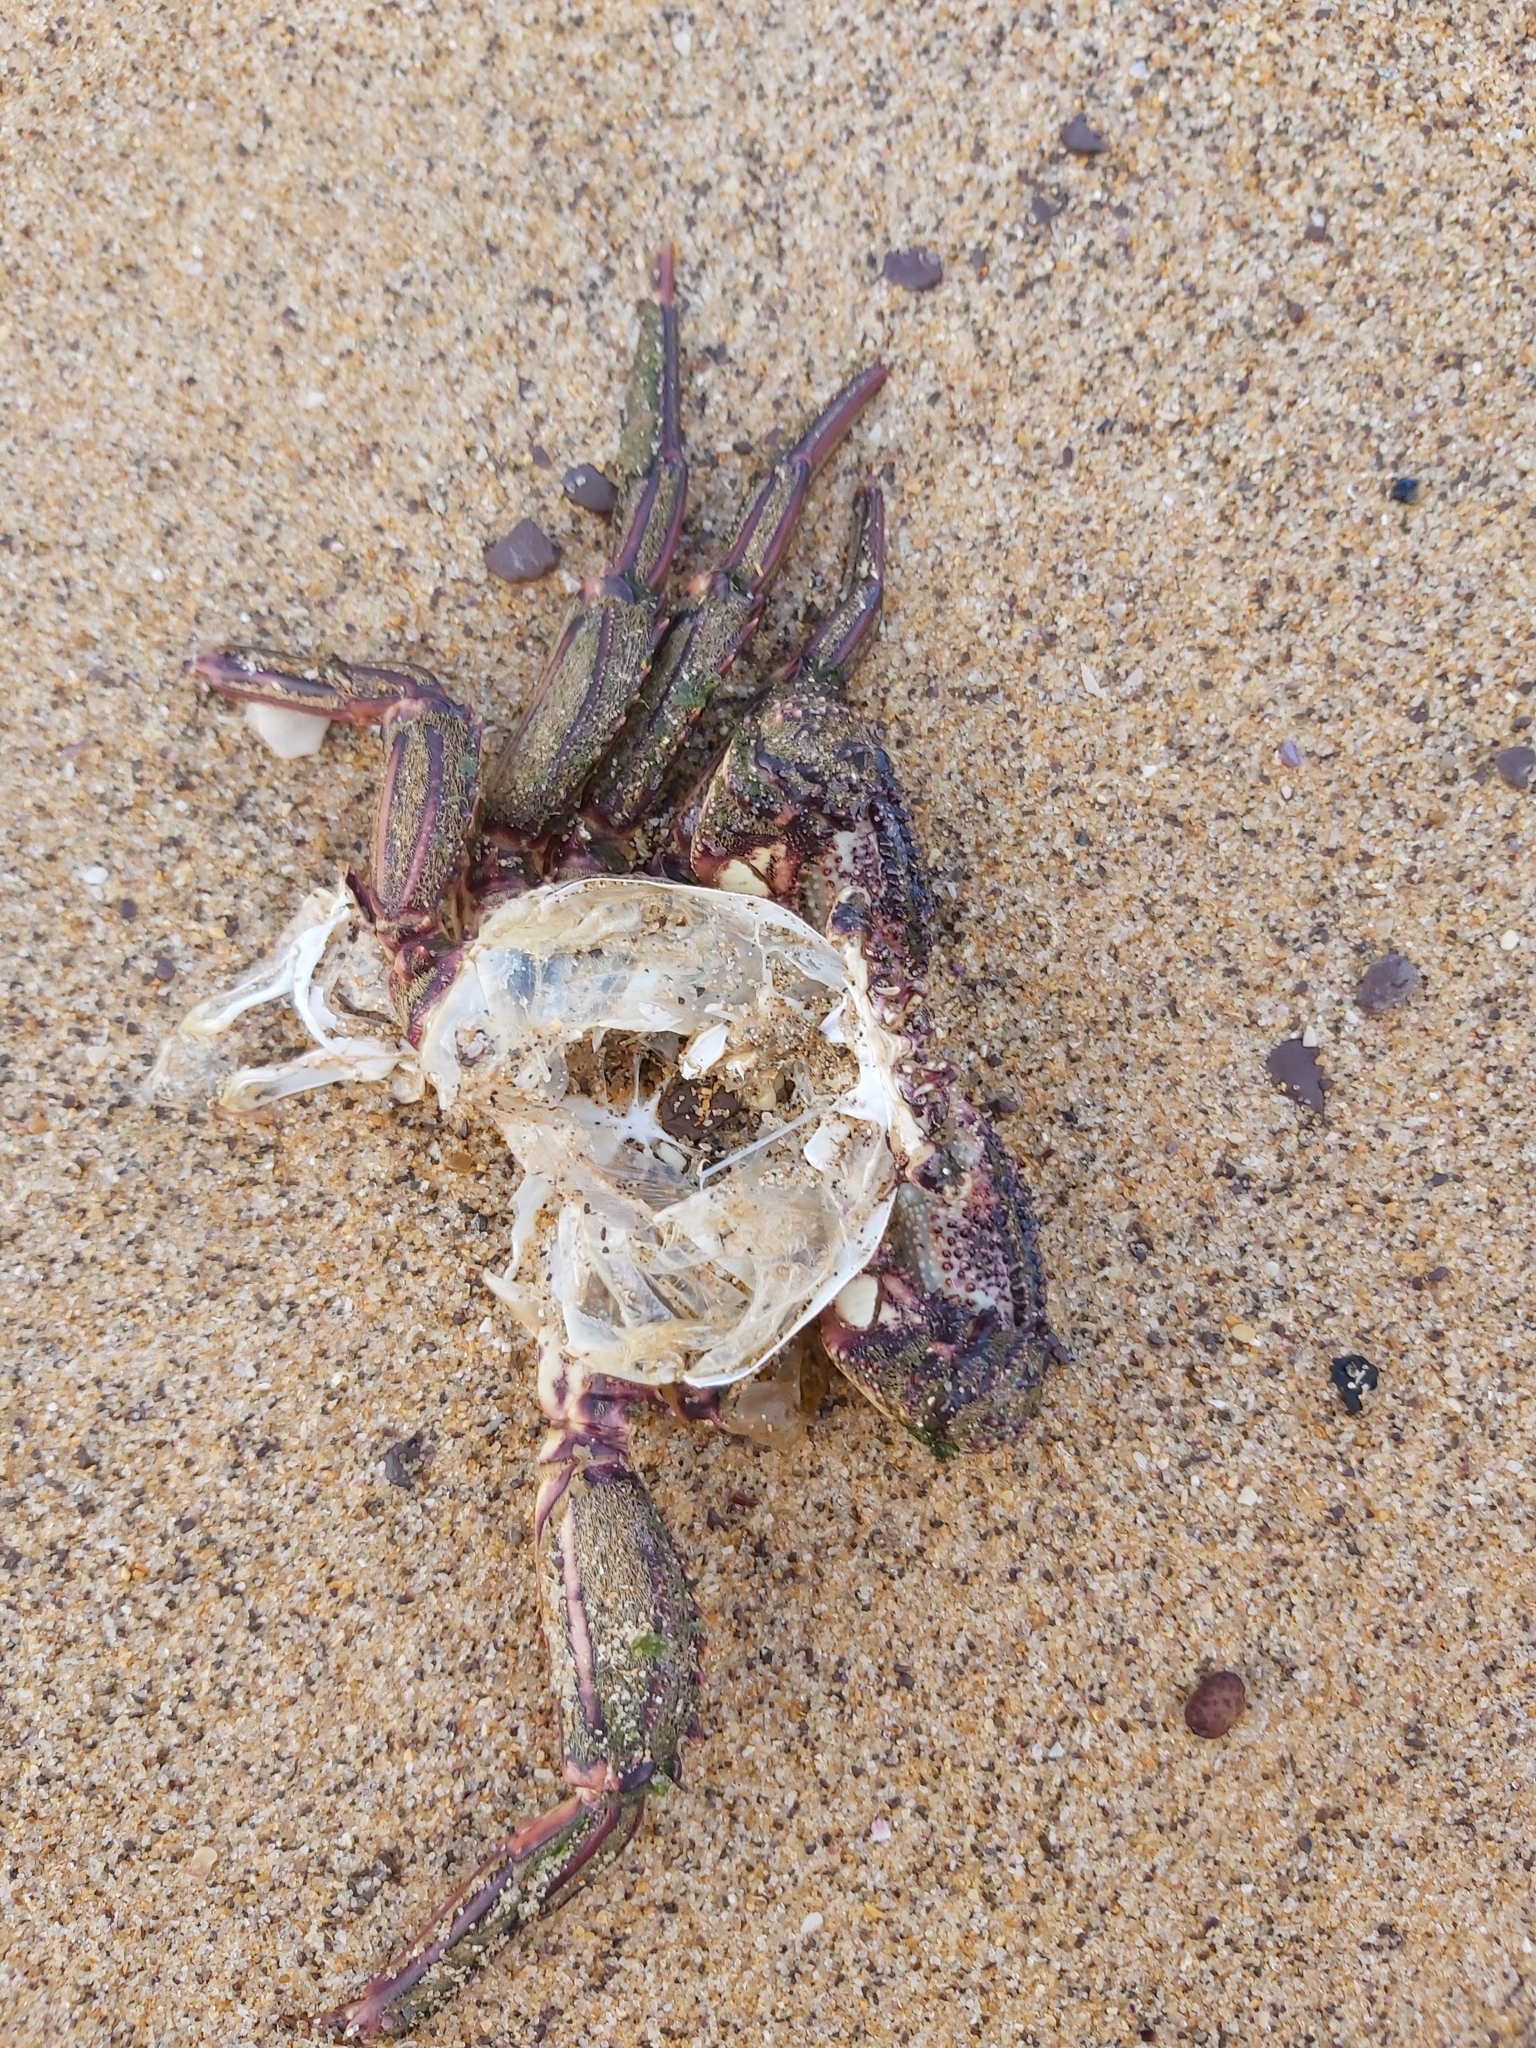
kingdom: Animalia
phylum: Arthropoda
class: Malacostraca
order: Decapoda
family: Plagusiidae
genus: Guinusia
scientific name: Guinusia chabrus
